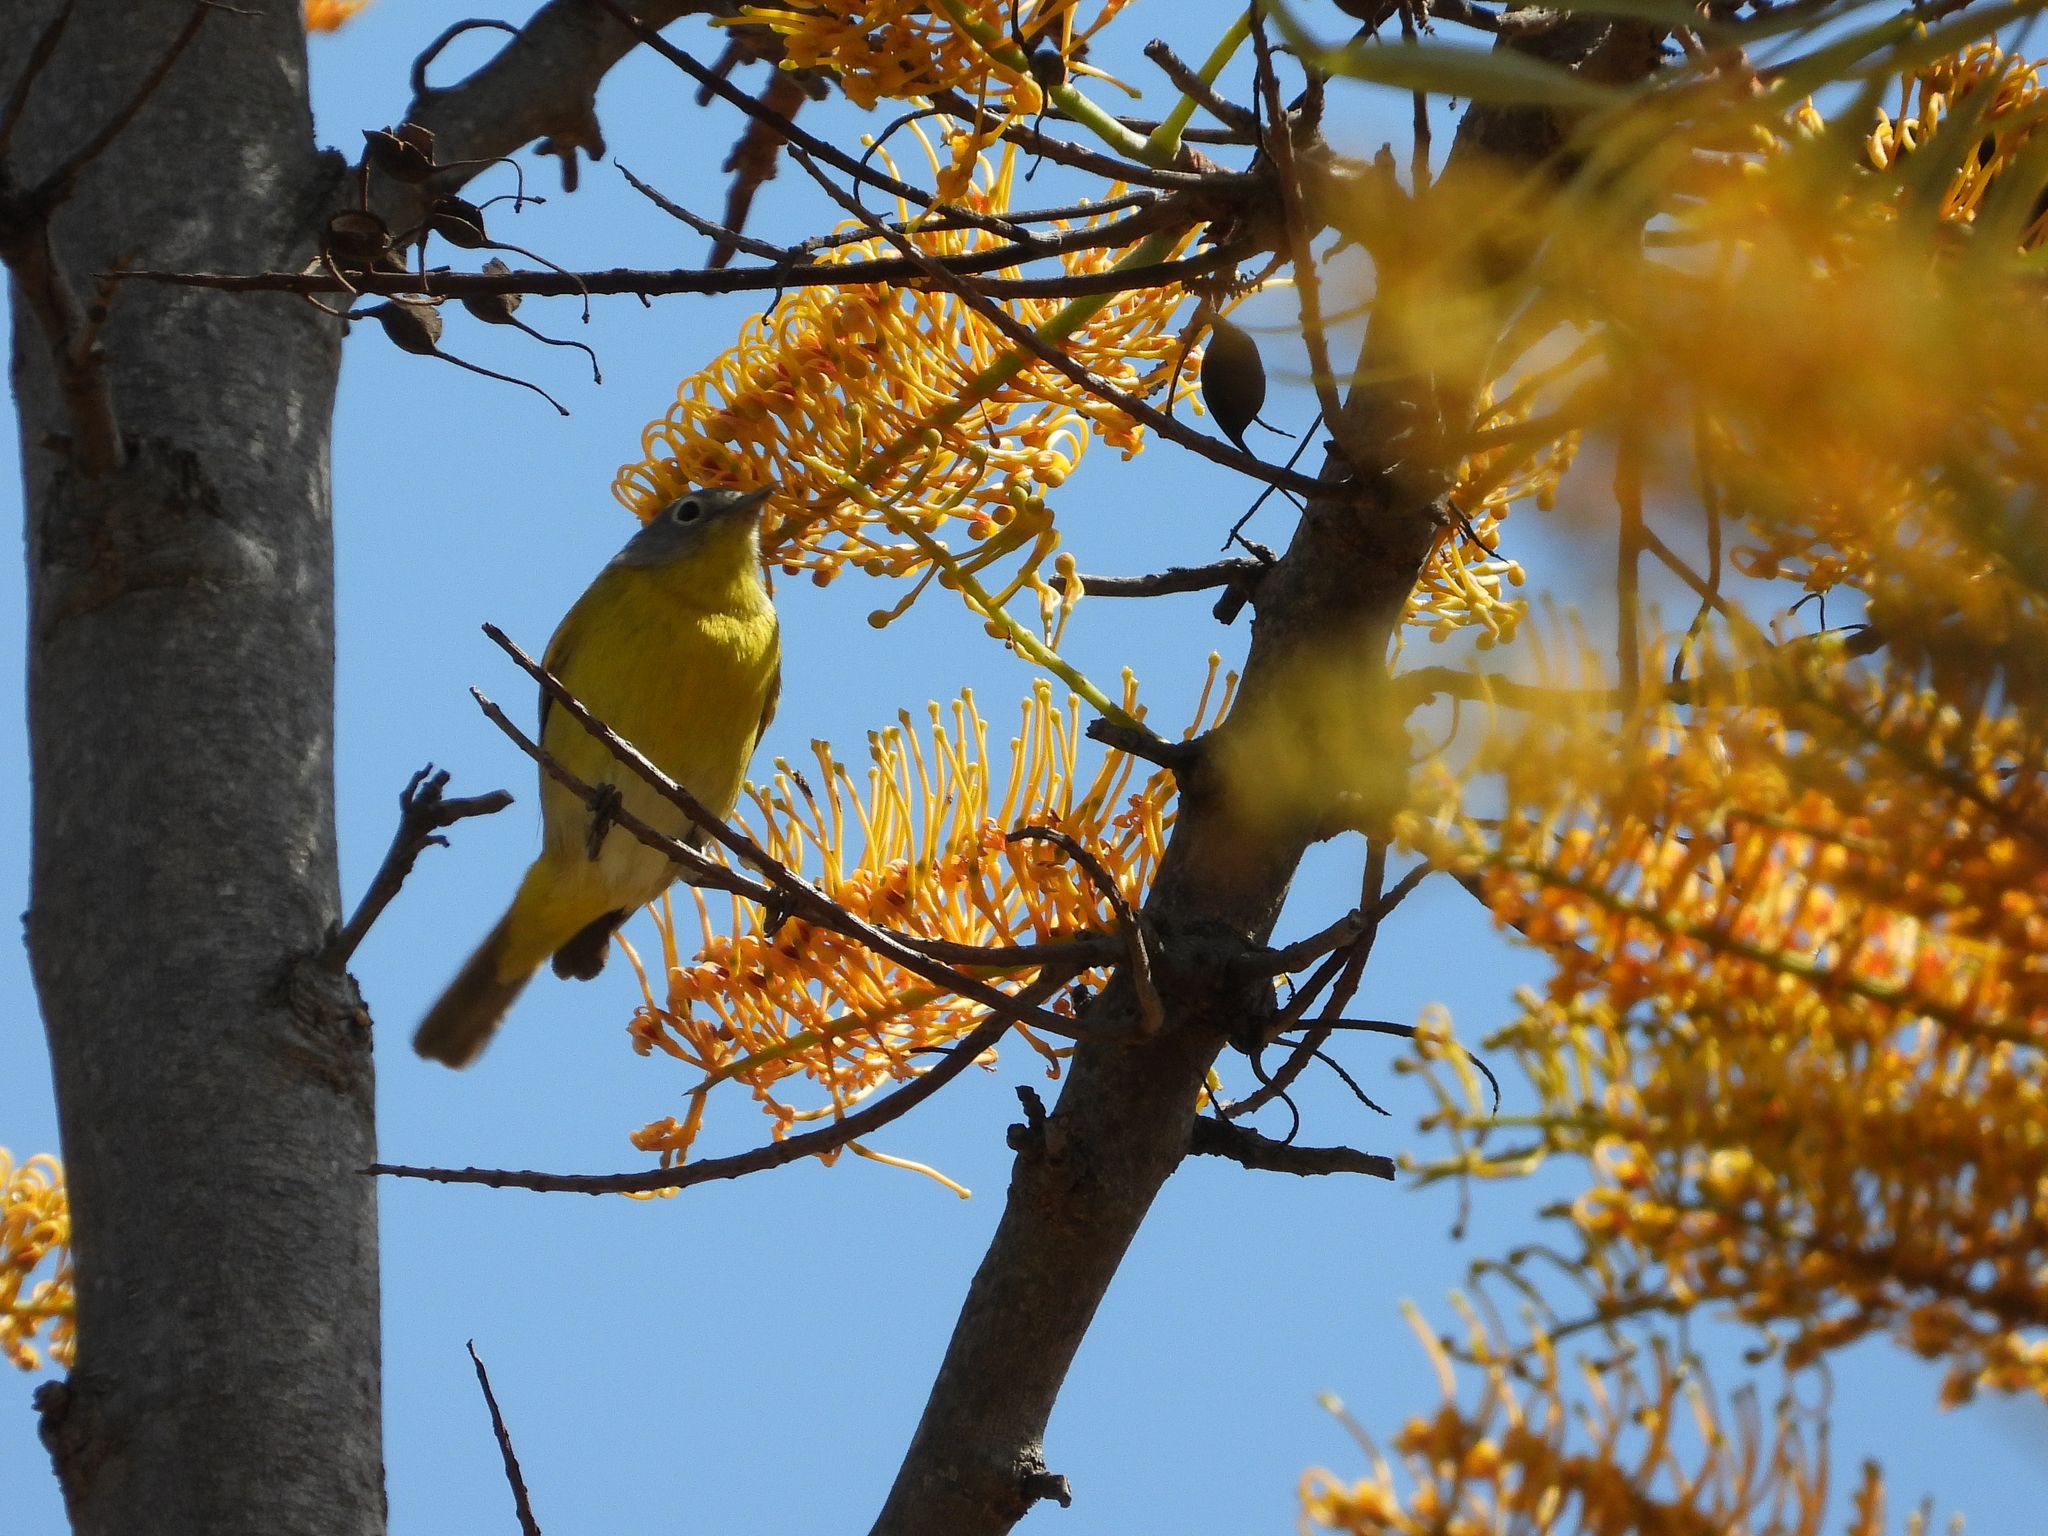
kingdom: Animalia
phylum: Chordata
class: Aves
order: Passeriformes
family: Parulidae
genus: Leiothlypis
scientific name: Leiothlypis ruficapilla
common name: Nashville warbler
